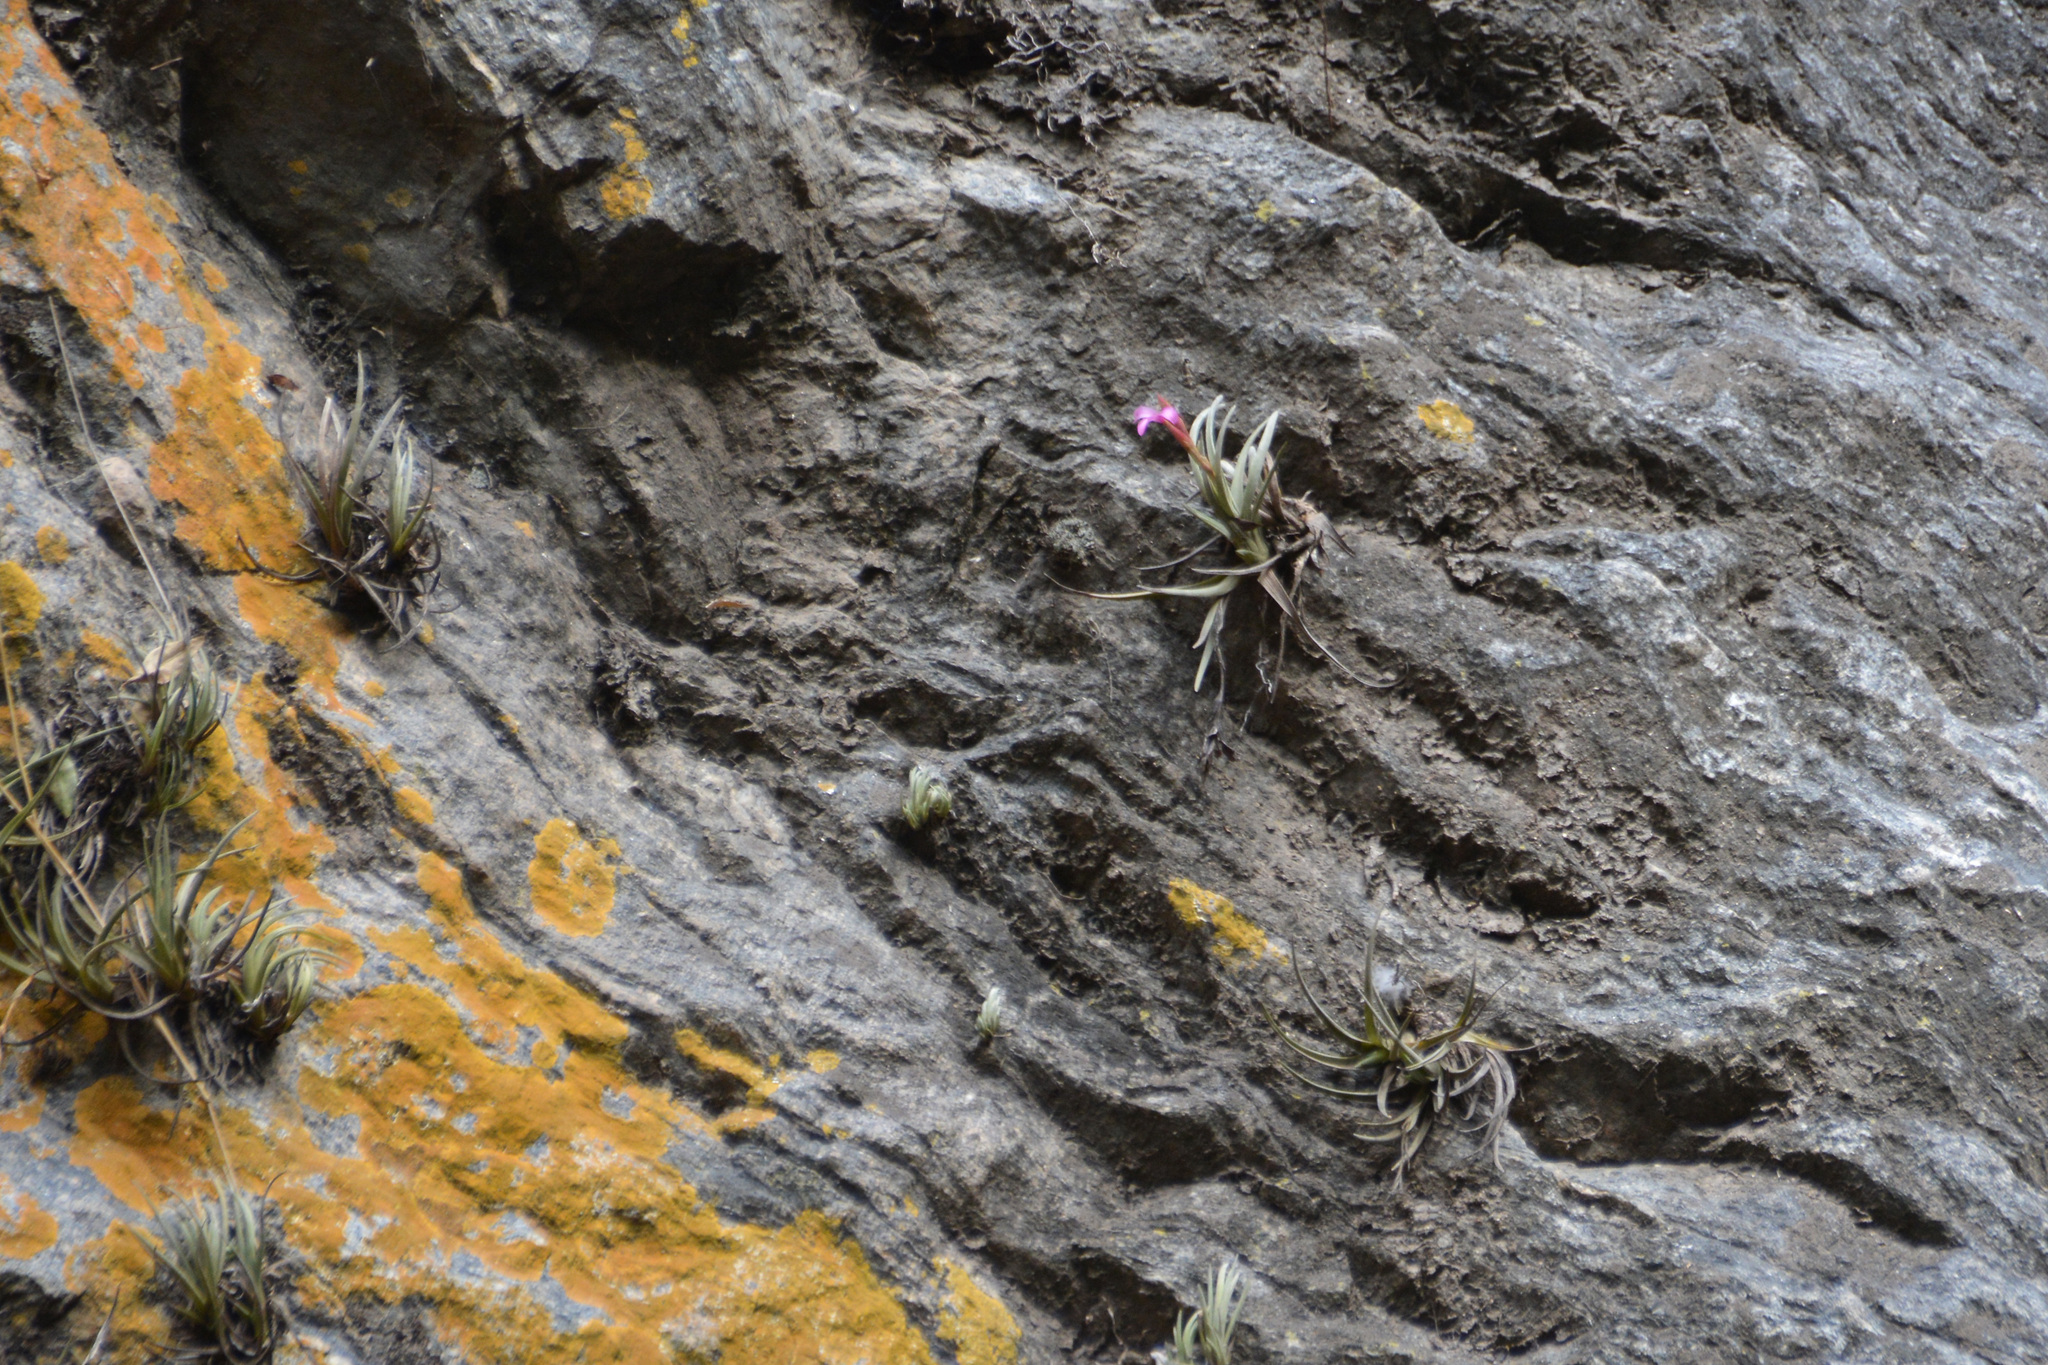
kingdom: Plantae
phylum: Tracheophyta
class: Liliopsida
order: Poales
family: Bromeliaceae
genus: Tillandsia
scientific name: Tillandsia argentina
